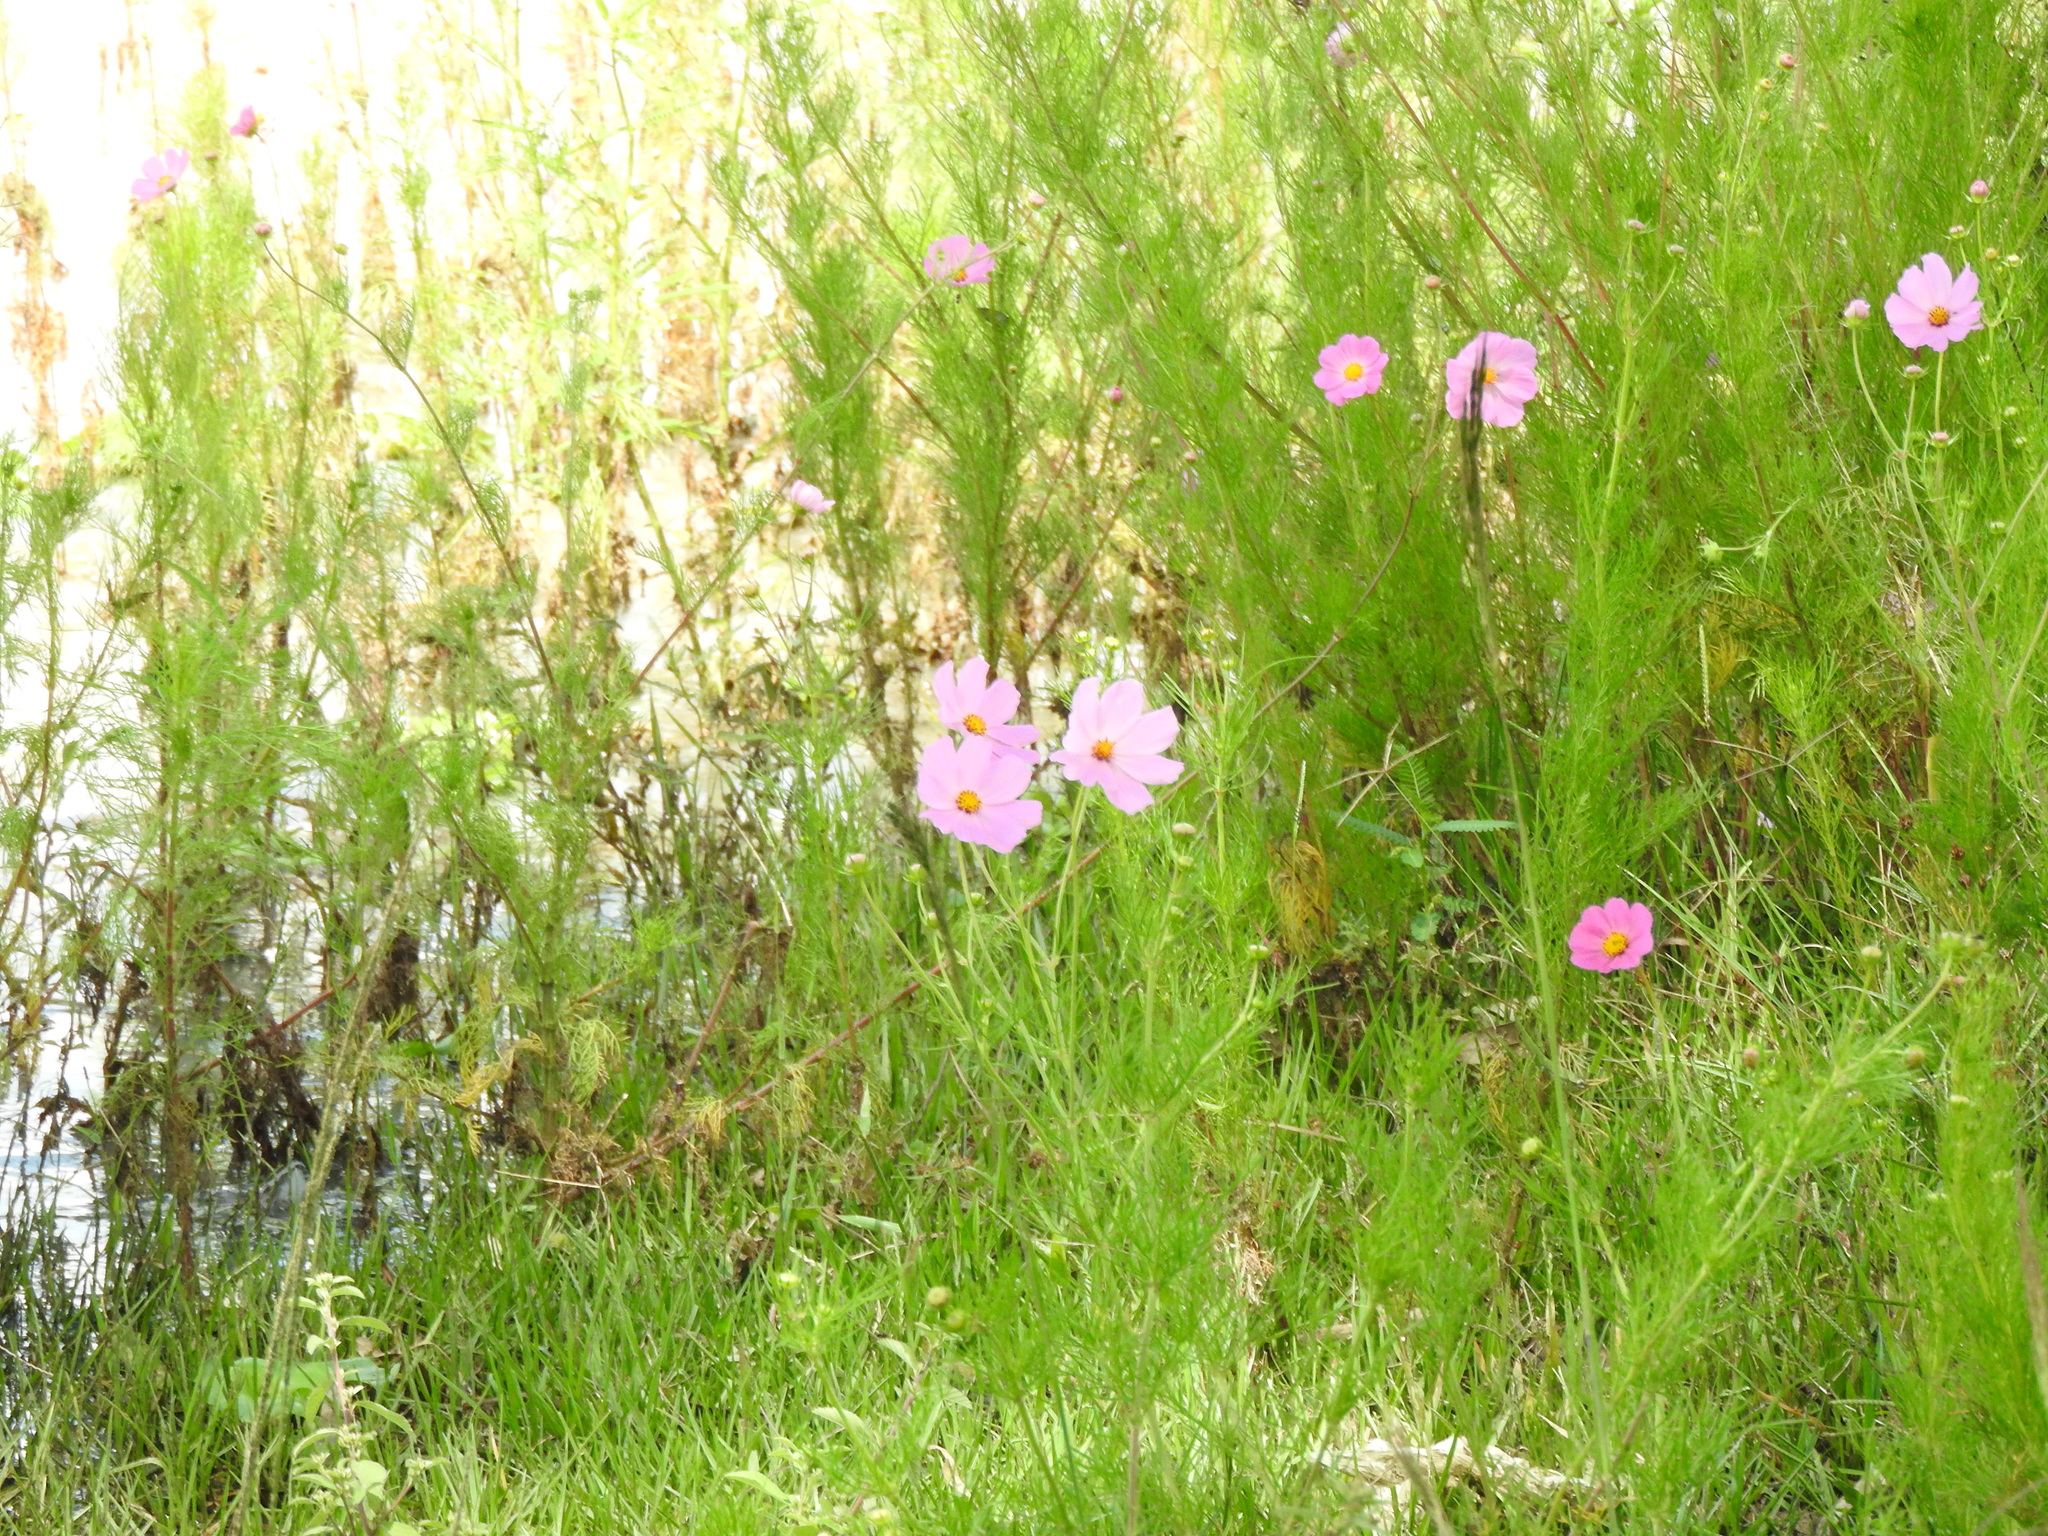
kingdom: Plantae
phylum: Tracheophyta
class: Magnoliopsida
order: Asterales
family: Asteraceae
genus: Cosmos
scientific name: Cosmos bipinnatus
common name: Garden cosmos
